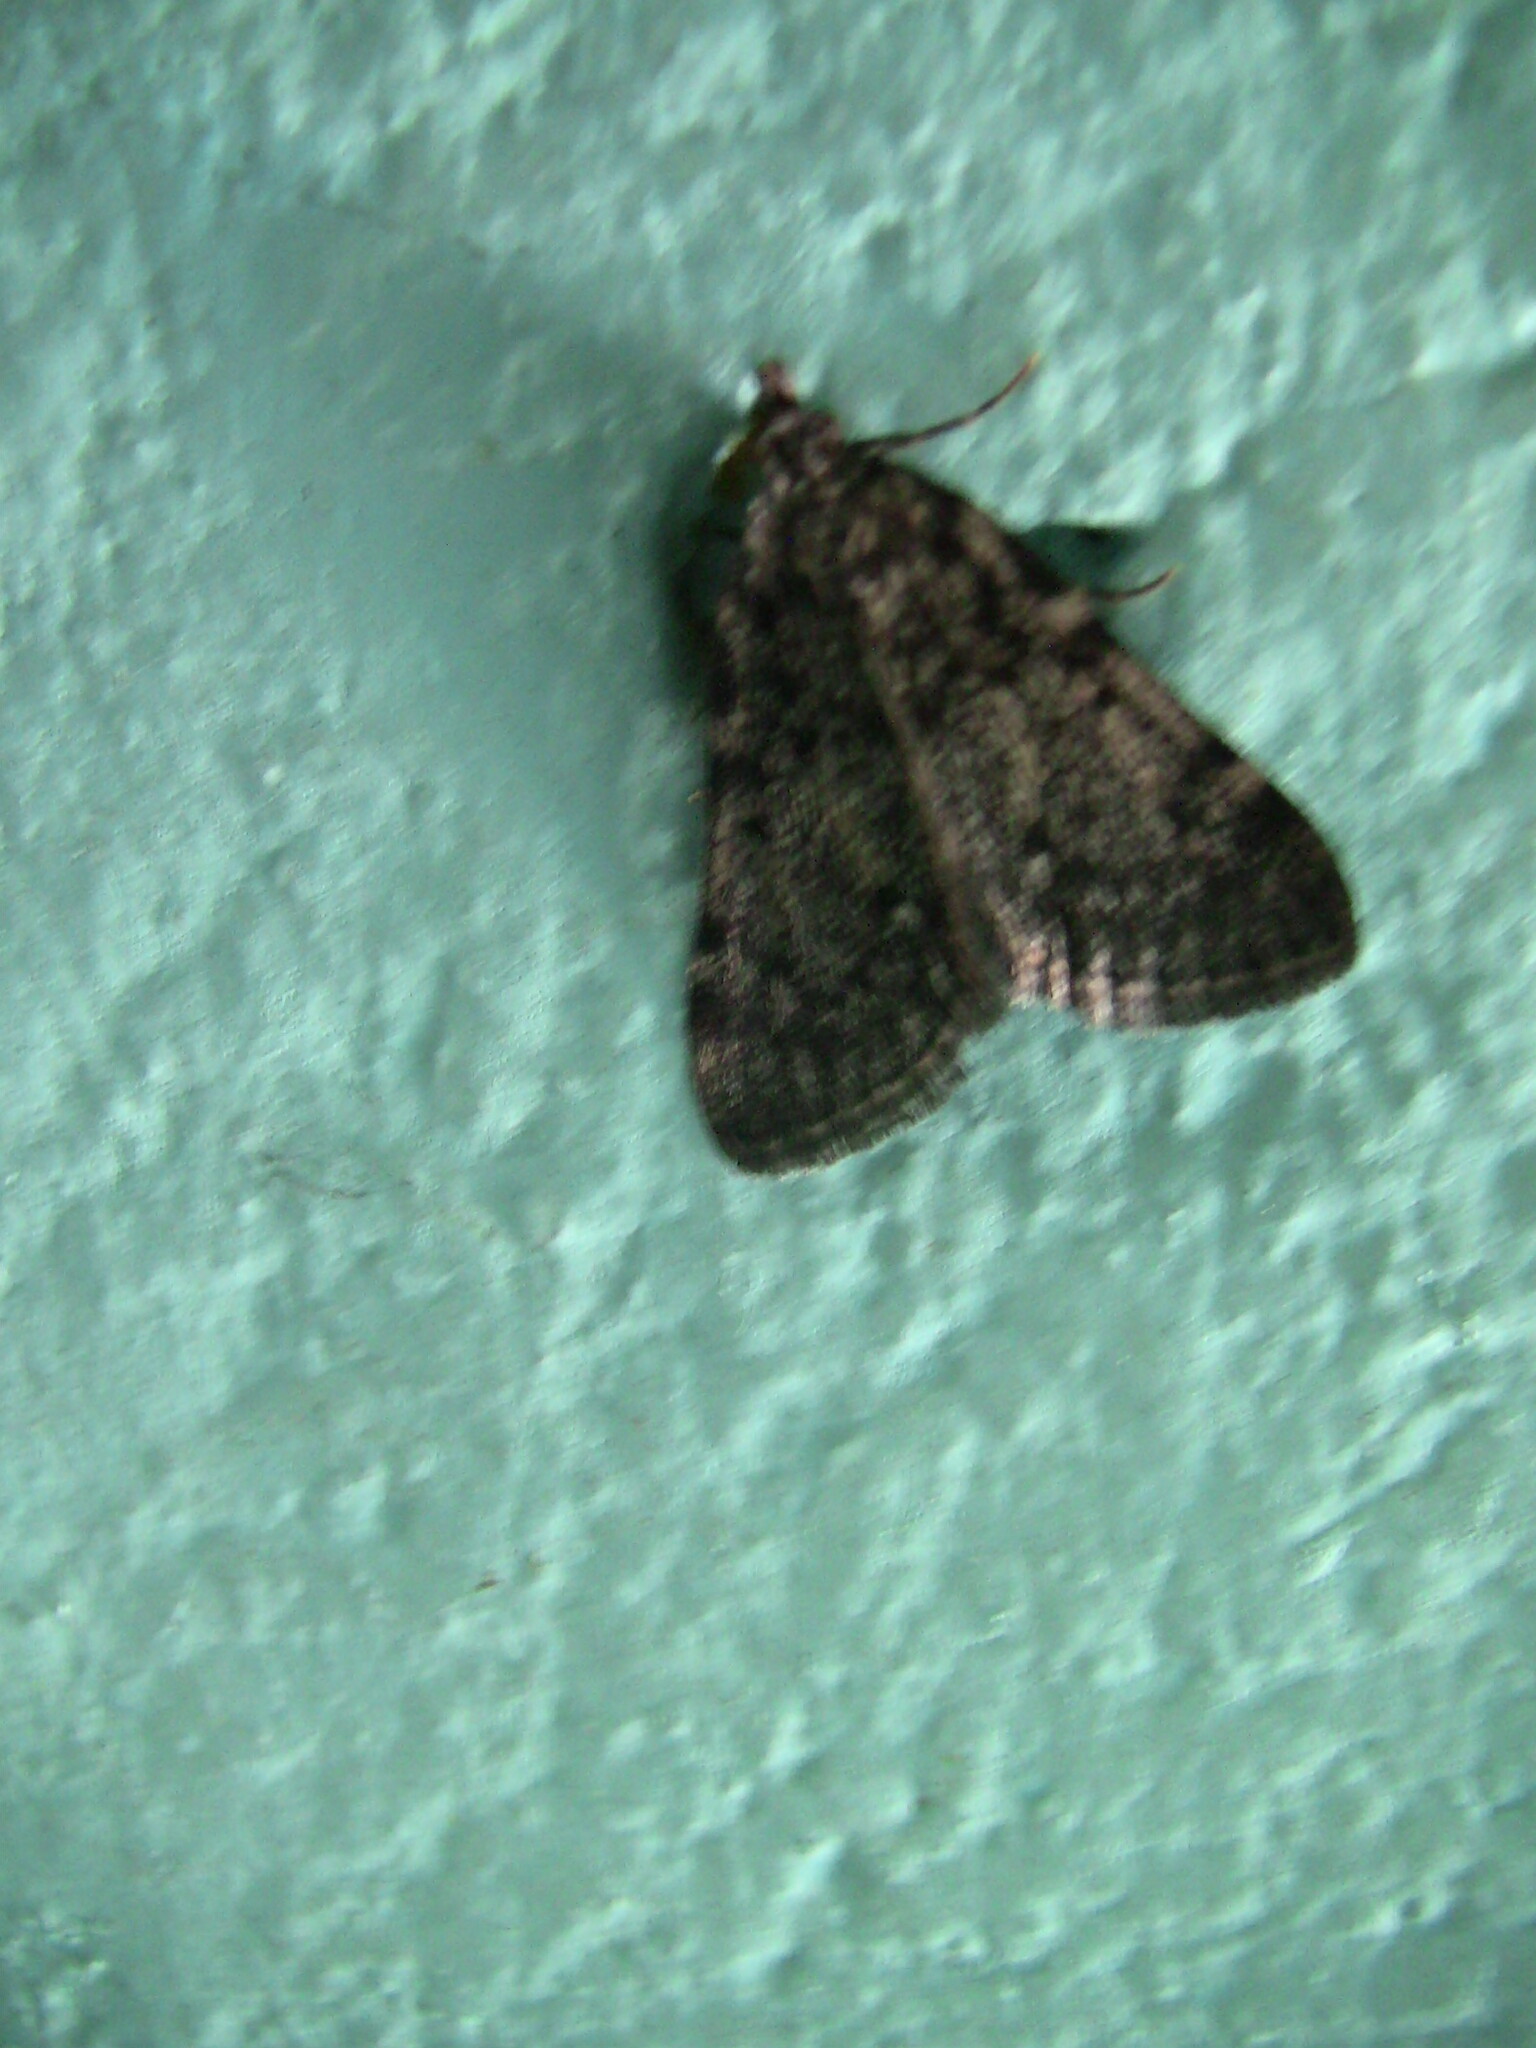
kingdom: Animalia
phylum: Arthropoda
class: Insecta
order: Lepidoptera
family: Pyralidae
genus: Aglossa
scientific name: Aglossa pinguinalis
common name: Large tabby
